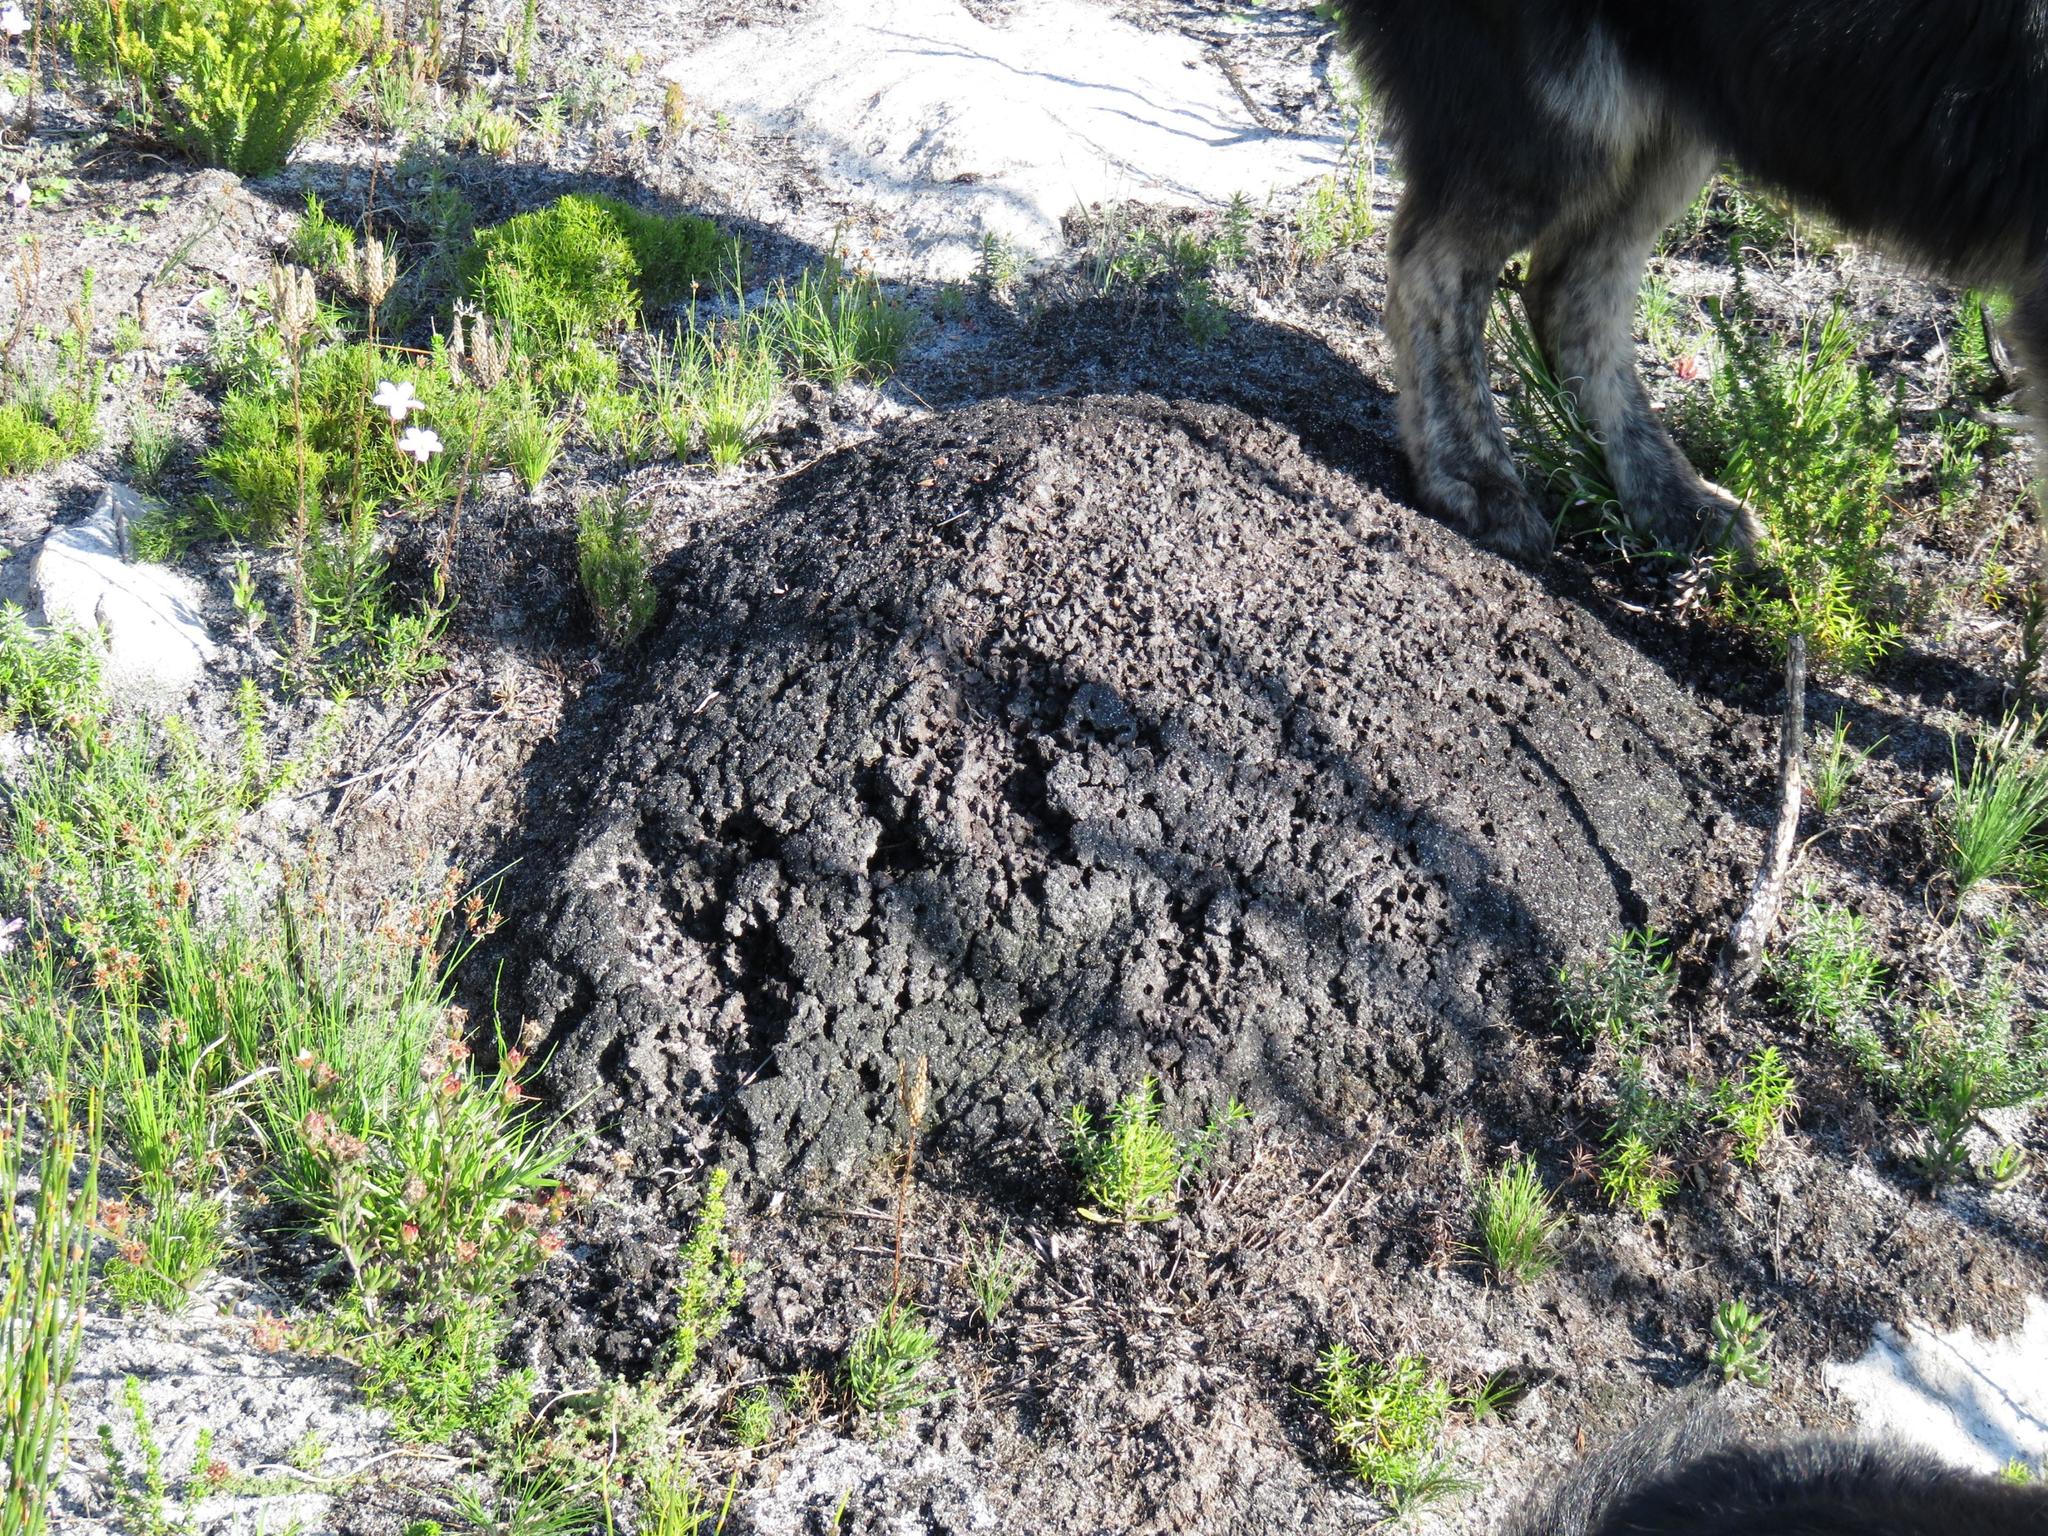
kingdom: Animalia
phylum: Arthropoda
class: Insecta
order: Blattodea
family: Termitidae
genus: Amitermes
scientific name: Amitermes hastatus
